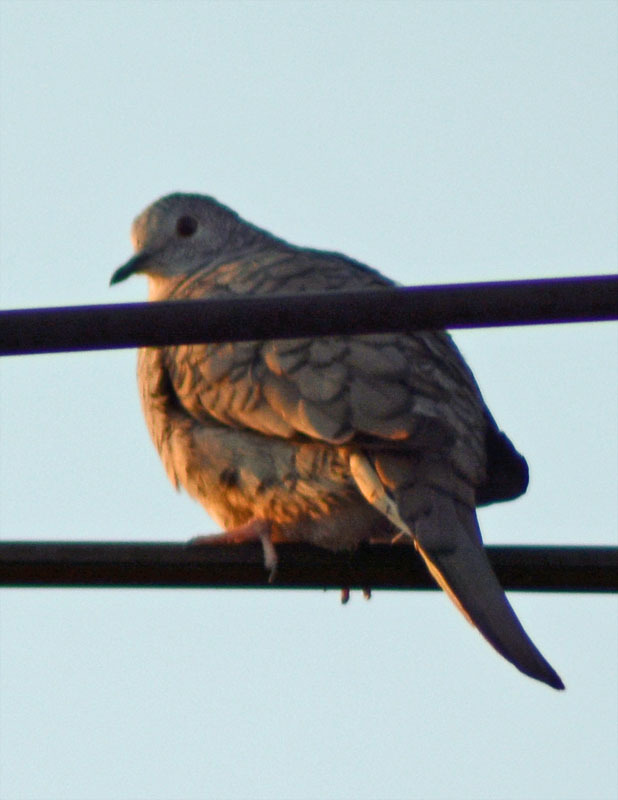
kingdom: Animalia
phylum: Chordata
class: Aves
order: Columbiformes
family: Columbidae
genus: Columbina
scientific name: Columbina inca
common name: Inca dove
